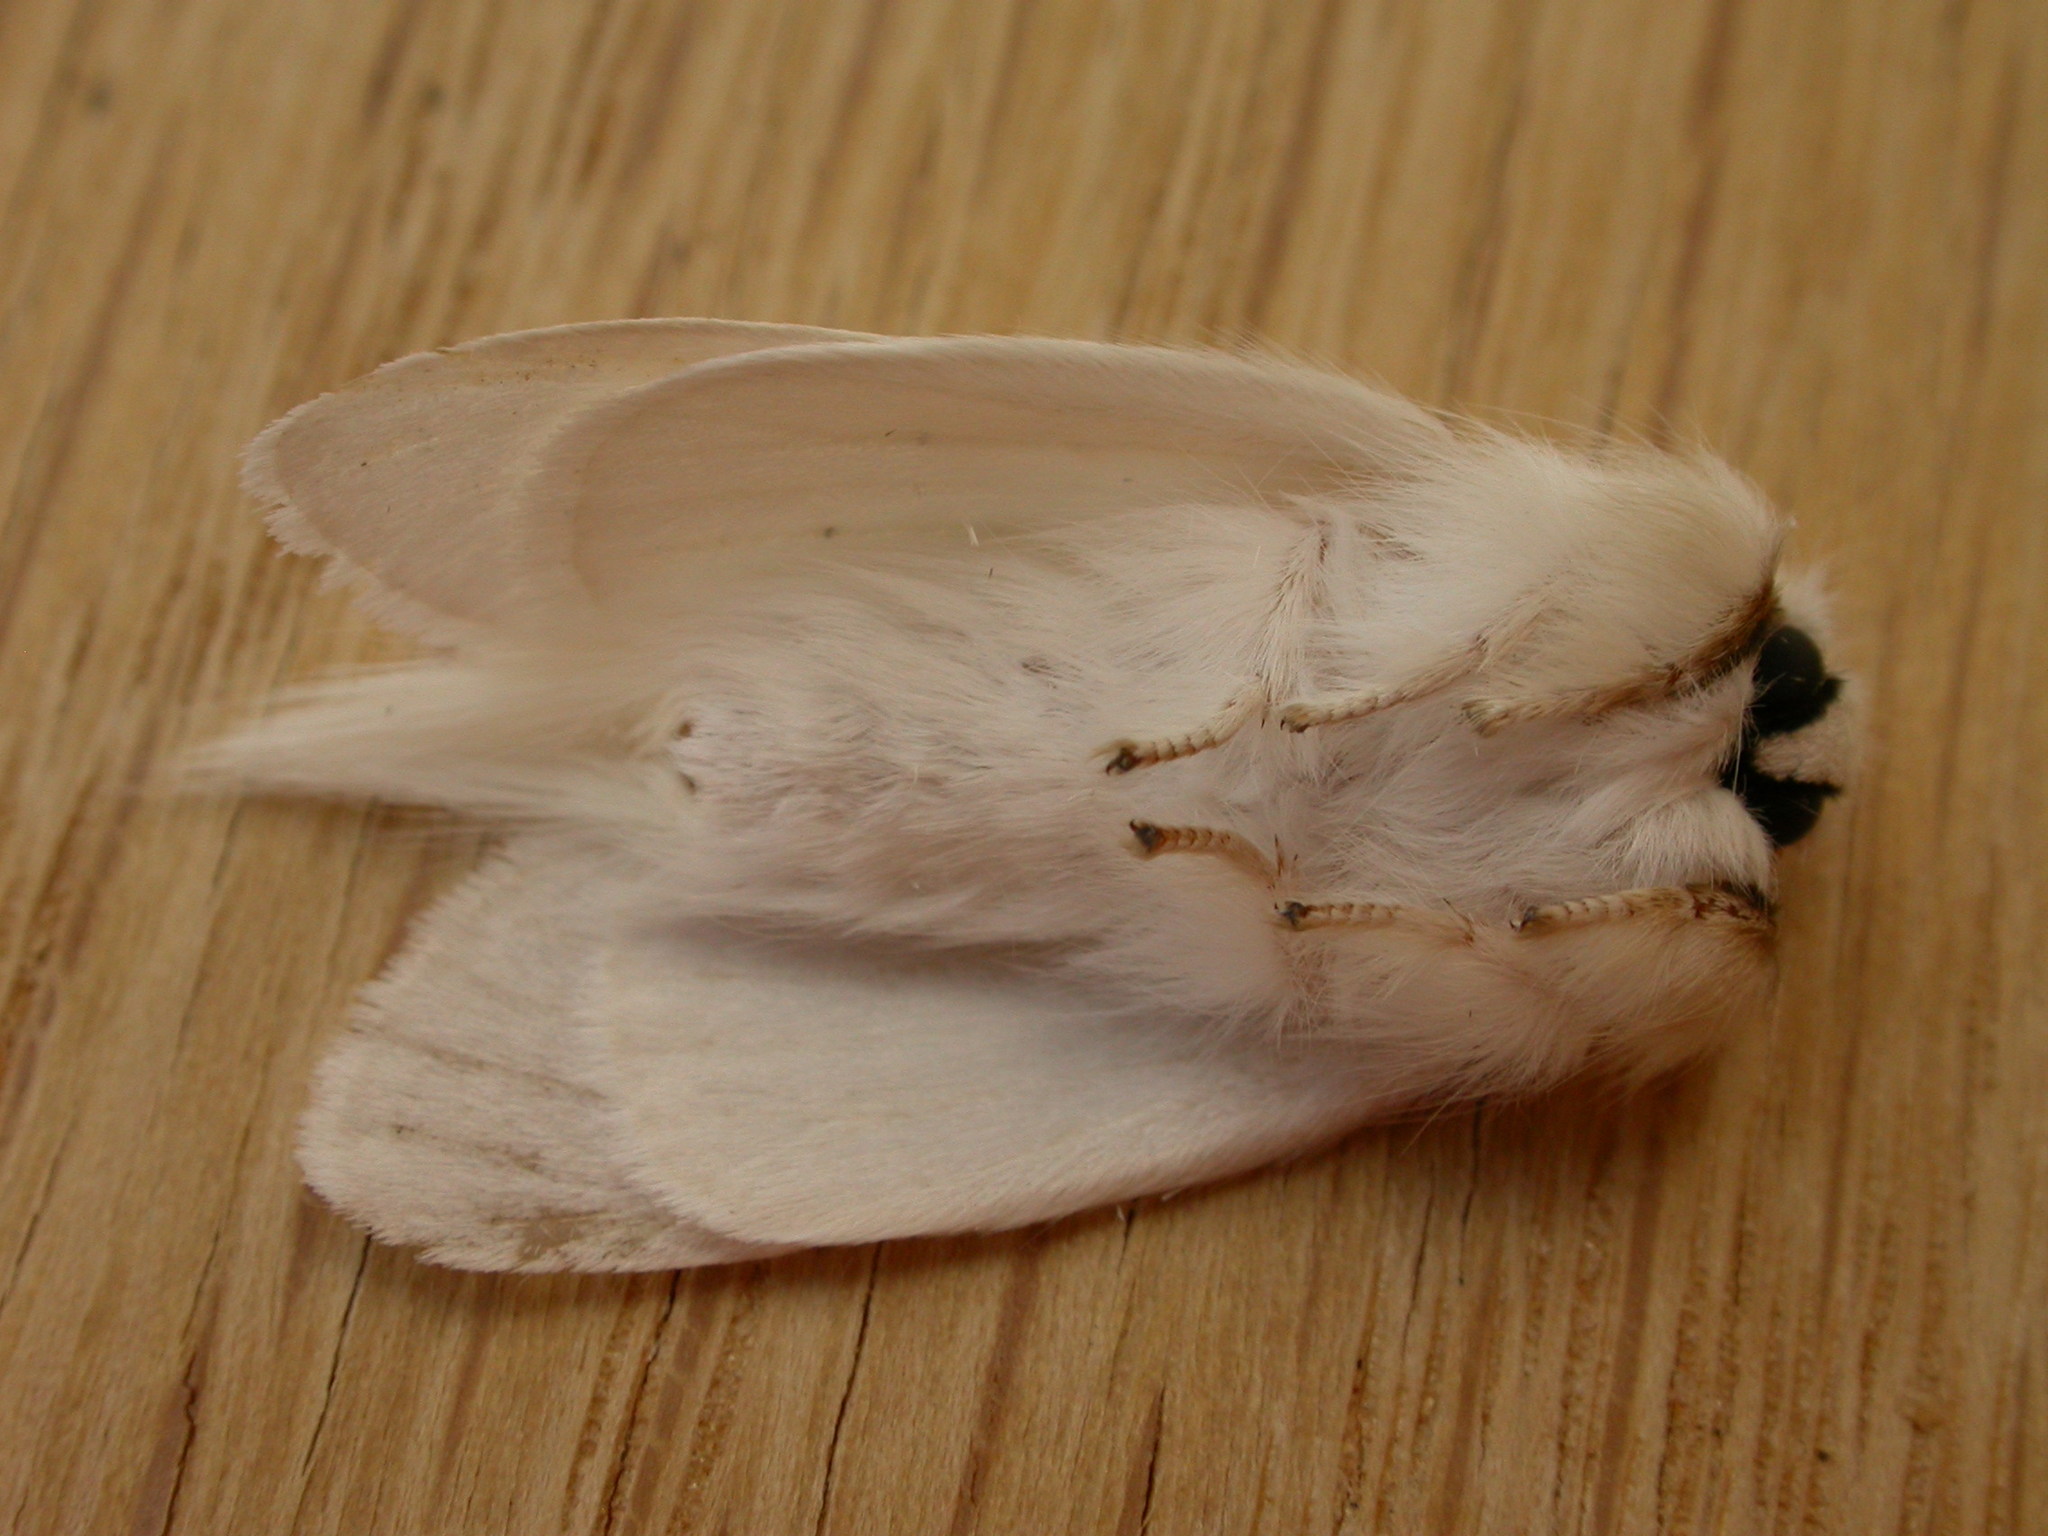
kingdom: Animalia
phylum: Arthropoda
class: Insecta
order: Lepidoptera
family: Notodontidae
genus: Trichiocercus
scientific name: Trichiocercus sparshalli
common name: Long-tailed satin
